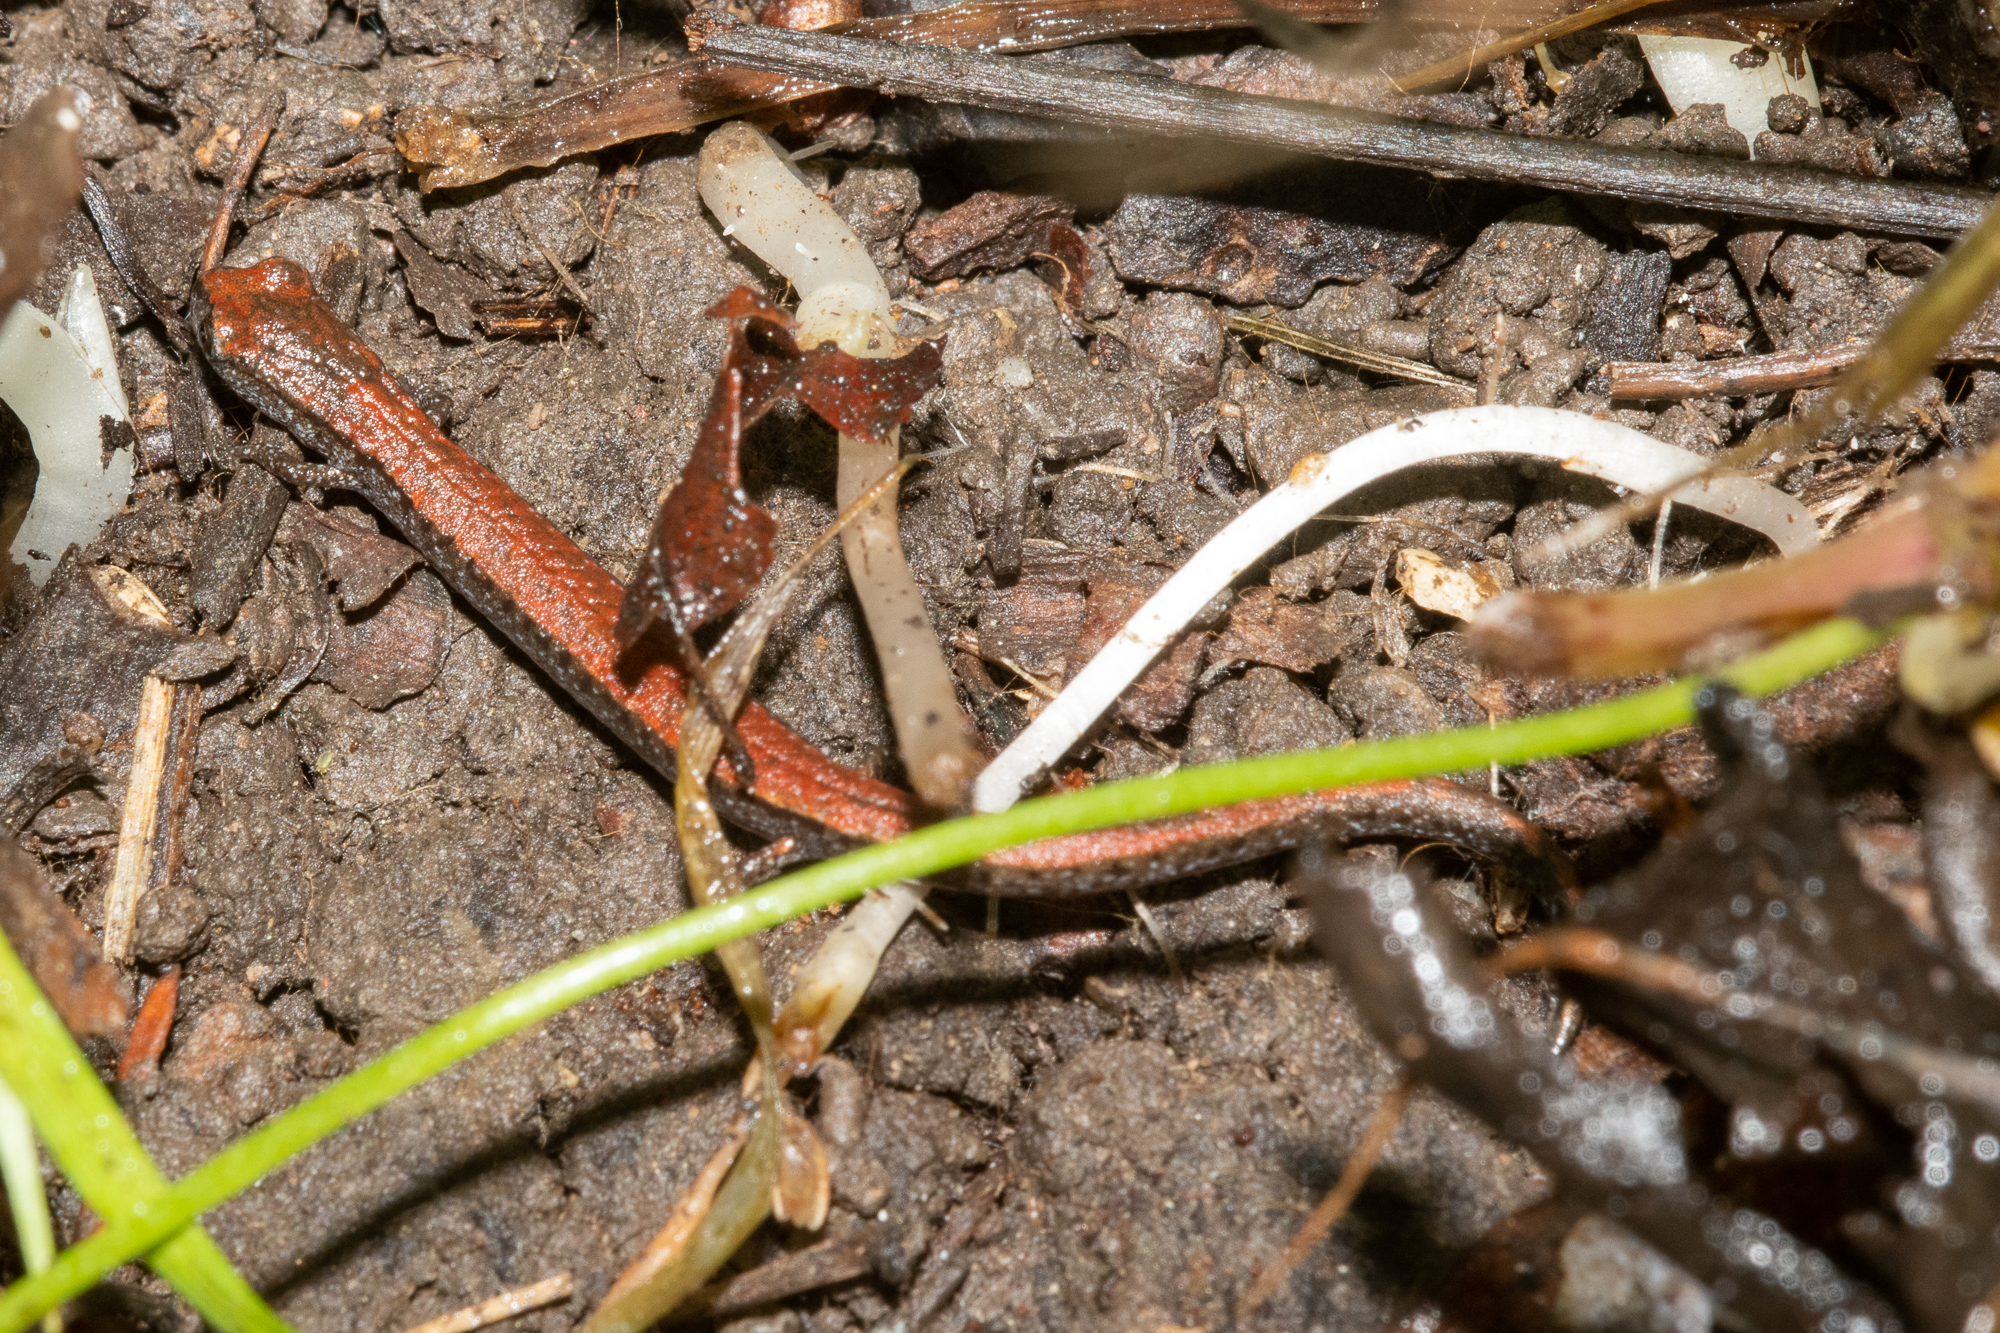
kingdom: Animalia
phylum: Chordata
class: Amphibia
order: Caudata
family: Plethodontidae
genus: Batrachoseps
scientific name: Batrachoseps attenuatus
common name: California slender salamander
